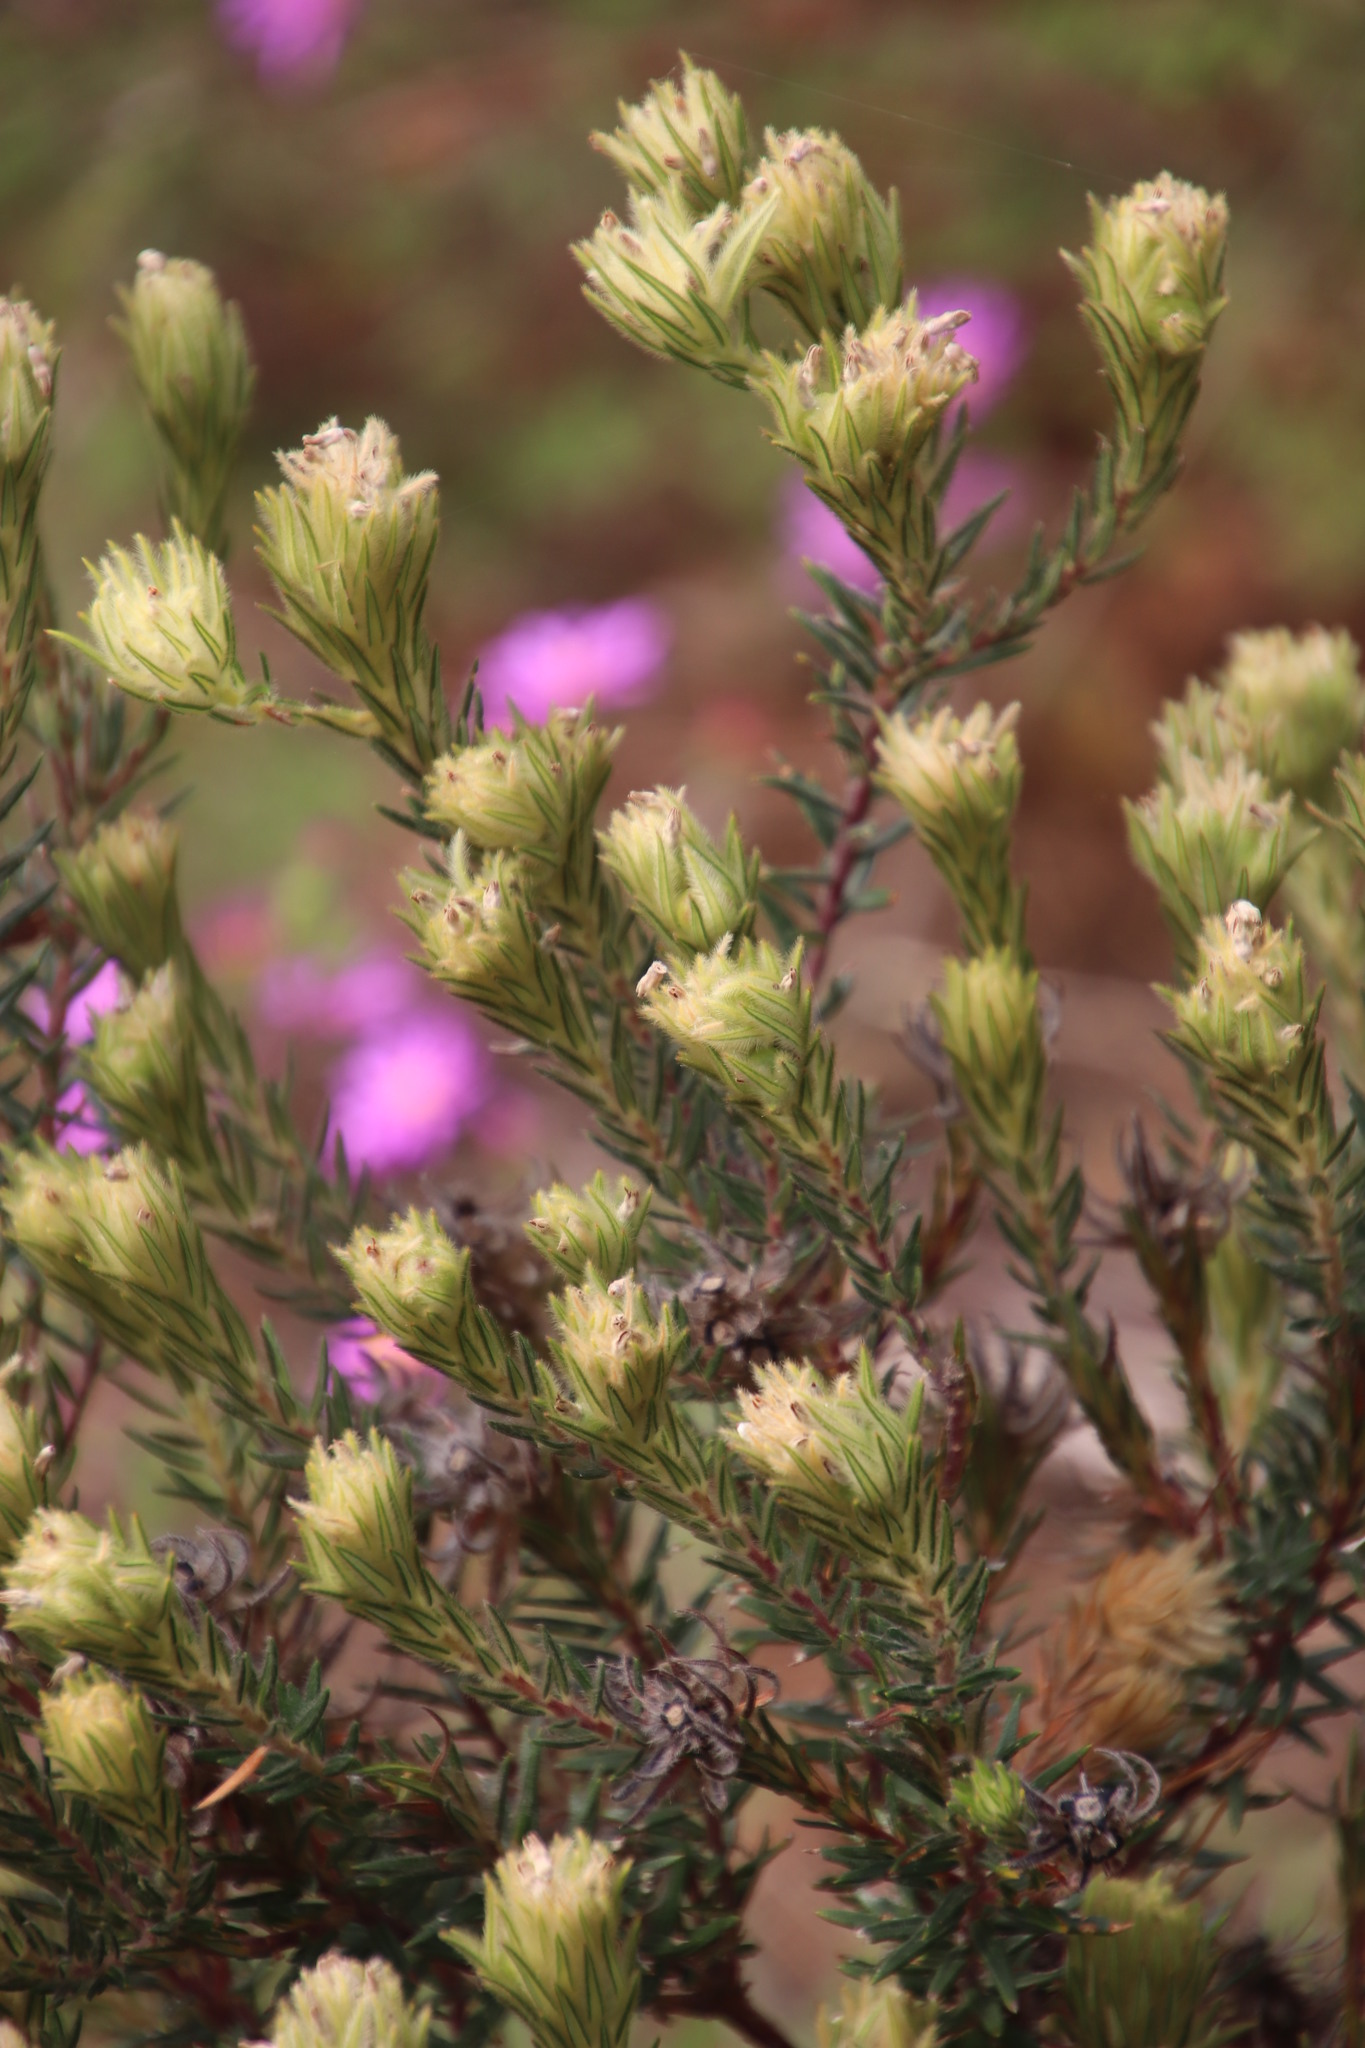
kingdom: Plantae
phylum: Tracheophyta
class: Magnoliopsida
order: Rosales
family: Rhamnaceae
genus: Phylica
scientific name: Phylica pubescens
